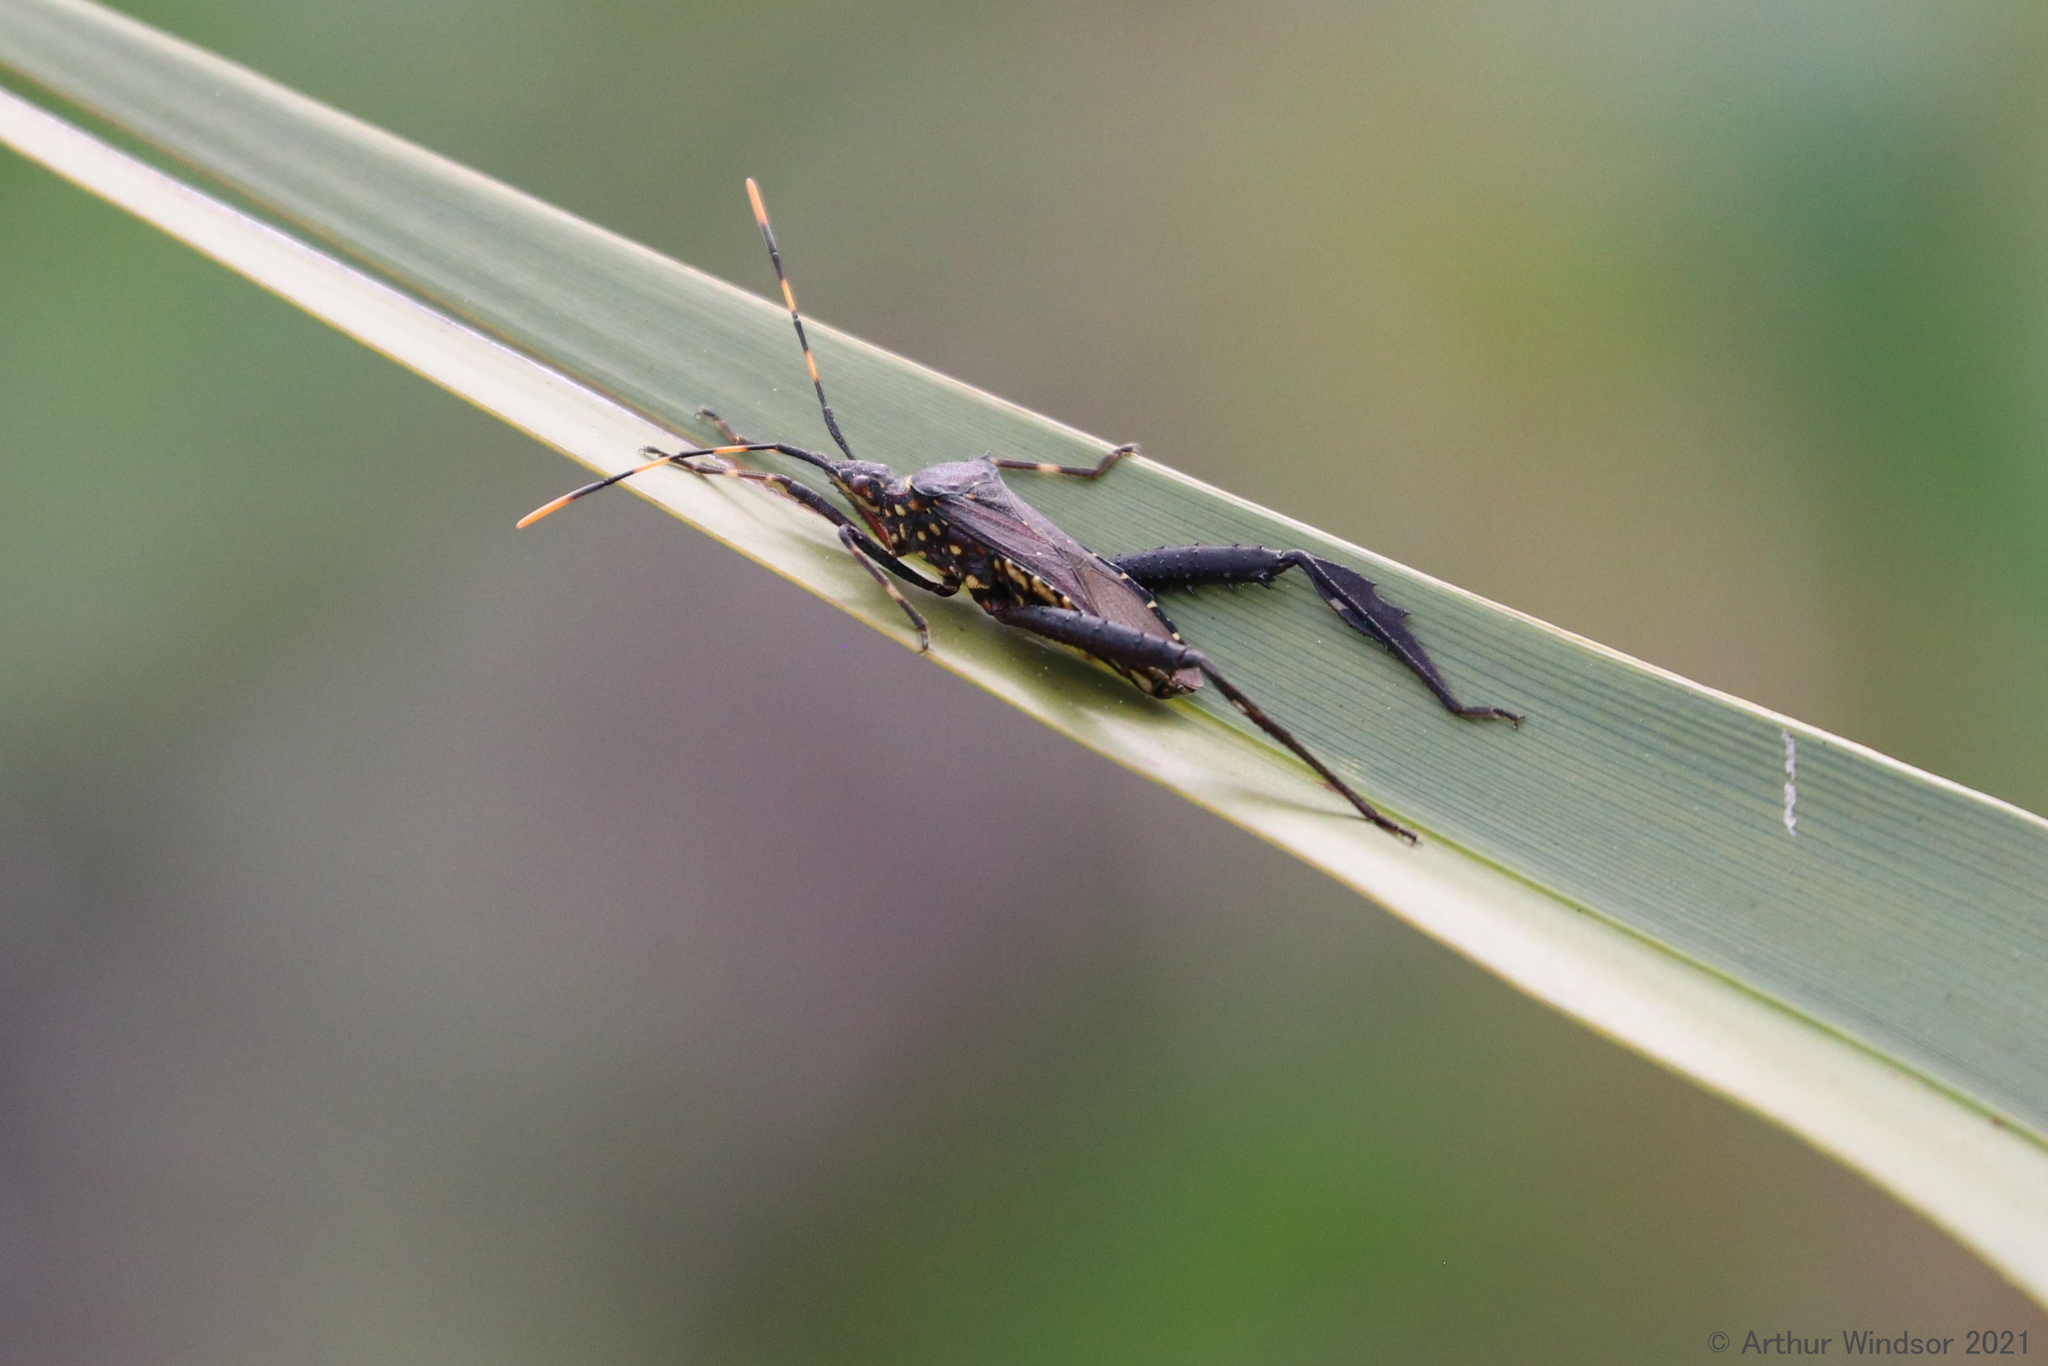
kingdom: Animalia
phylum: Arthropoda
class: Insecta
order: Hemiptera
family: Coreidae
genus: Leptoglossus
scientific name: Leptoglossus gonagra
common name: Citron bug
